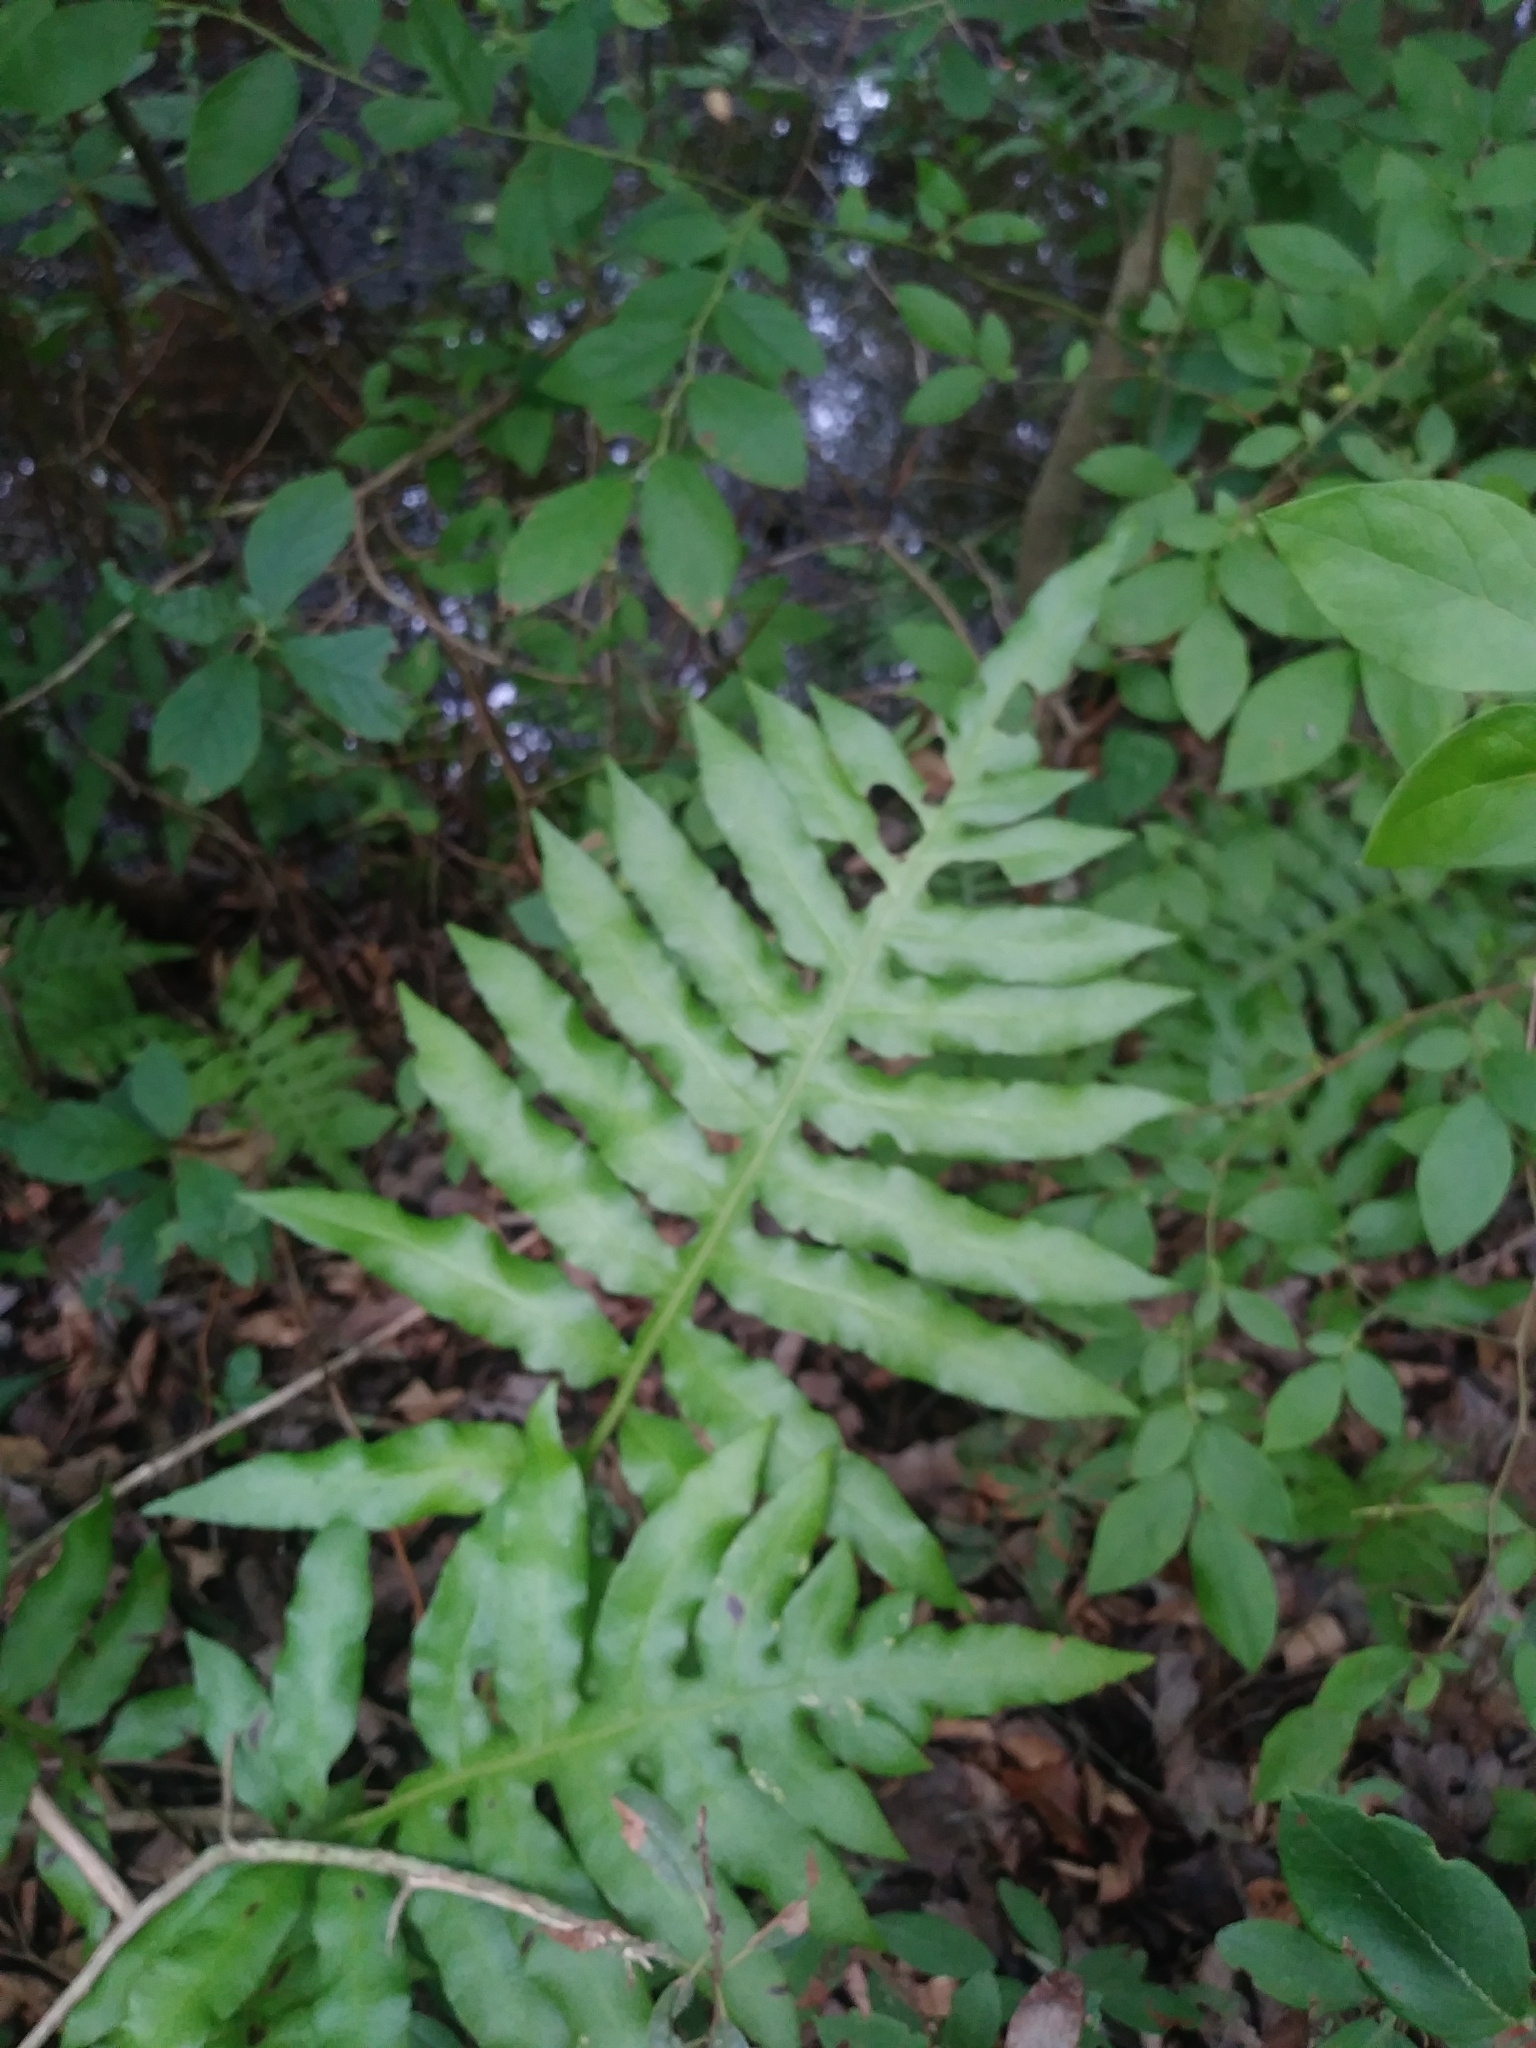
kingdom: Plantae
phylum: Tracheophyta
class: Polypodiopsida
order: Polypodiales
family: Blechnaceae
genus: Lorinseria
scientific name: Lorinseria areolata
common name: Dwarf chain fern
